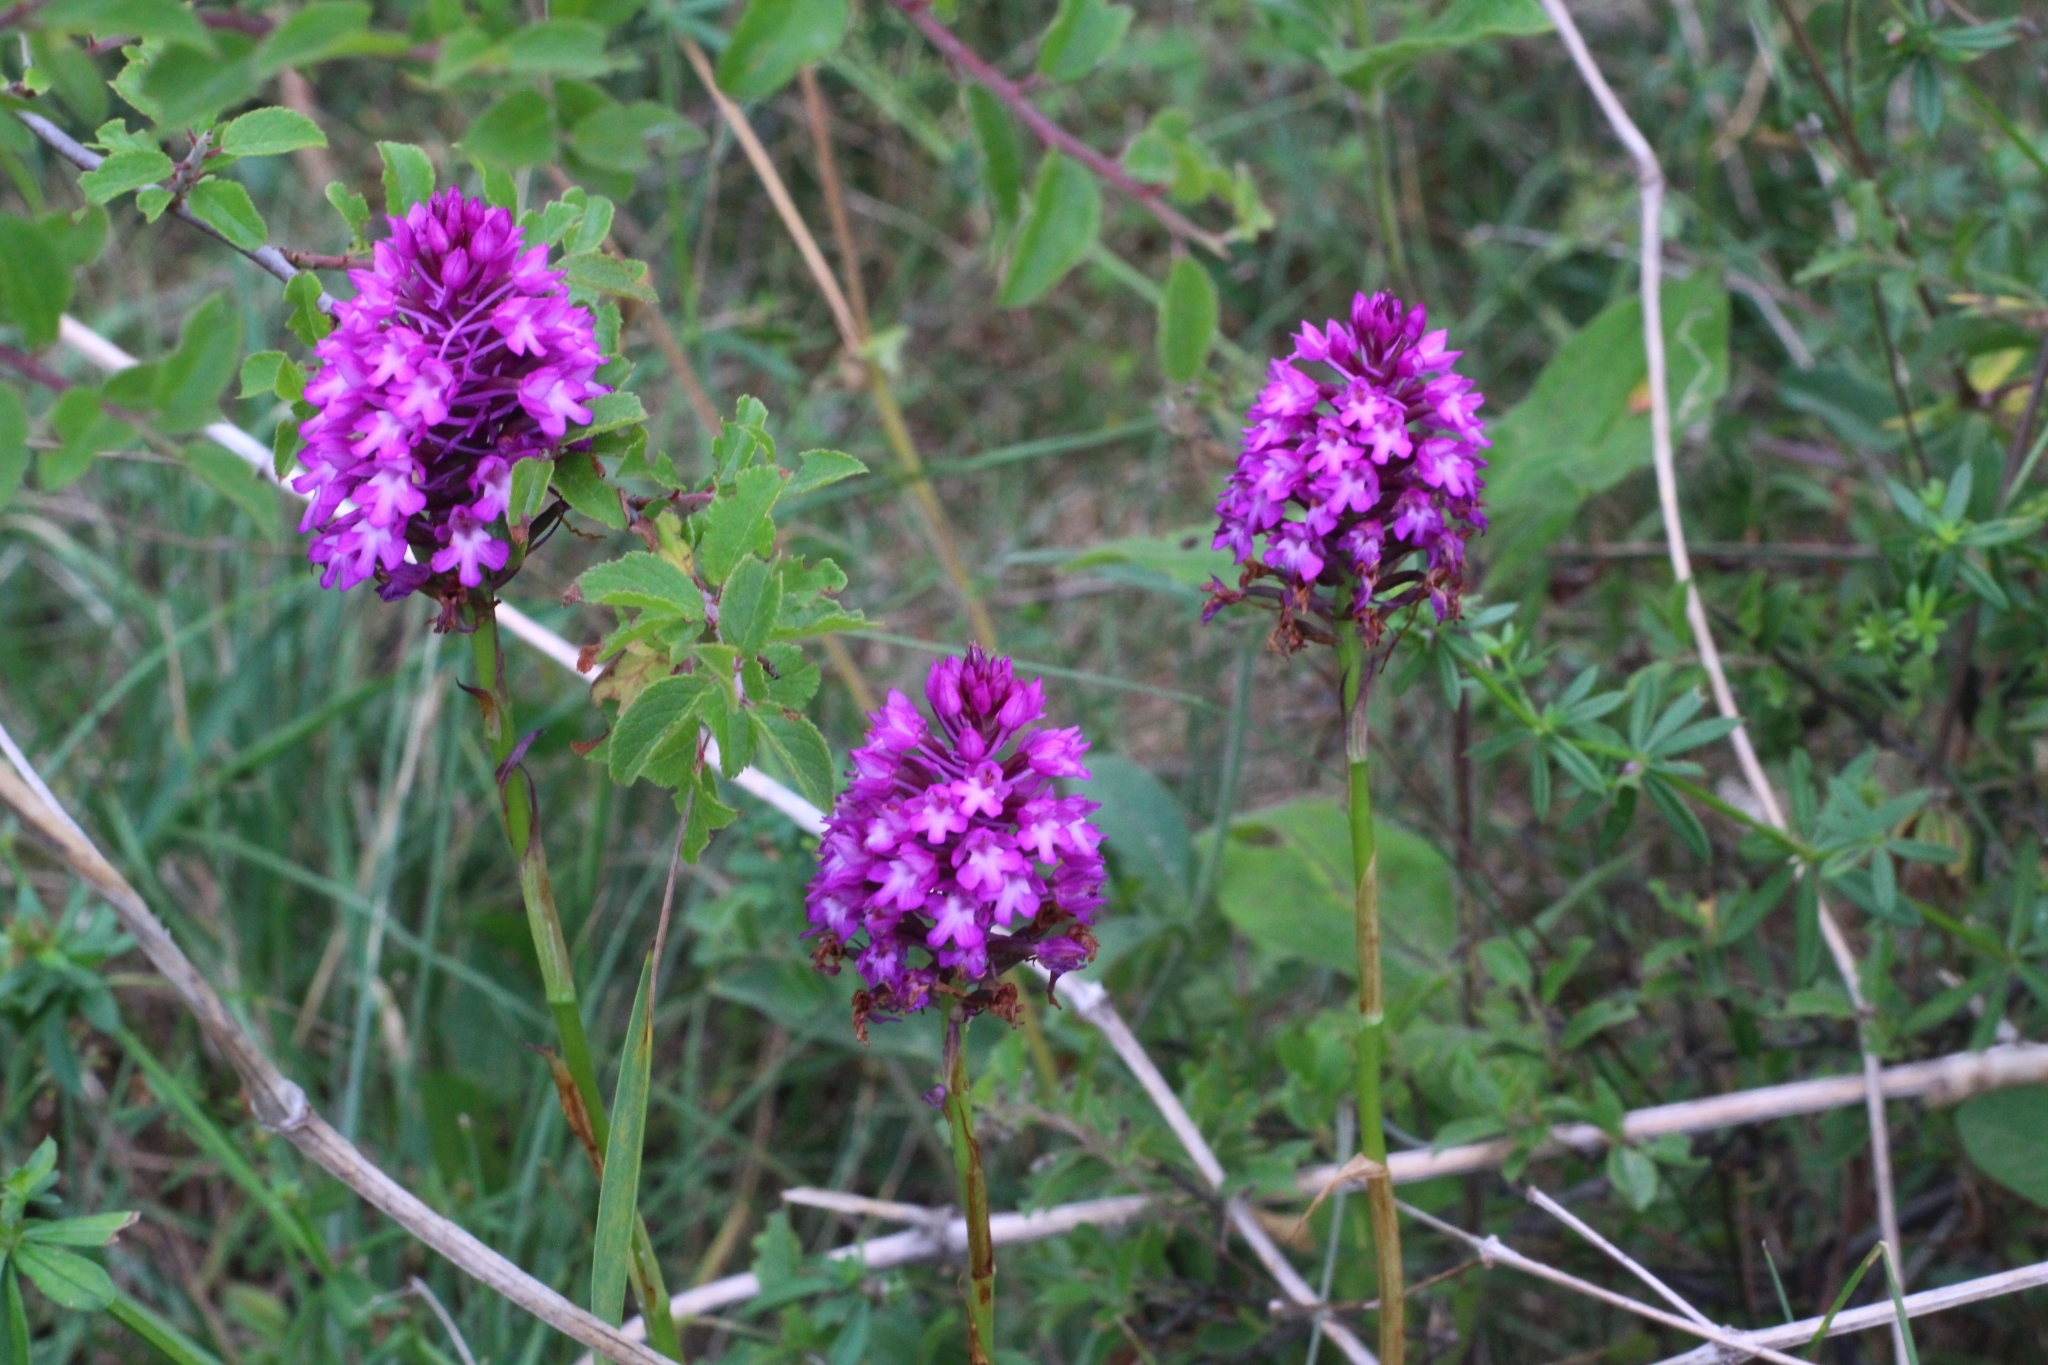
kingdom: Plantae
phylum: Tracheophyta
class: Liliopsida
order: Asparagales
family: Orchidaceae
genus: Anacamptis
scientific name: Anacamptis pyramidalis
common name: Pyramidal orchid
